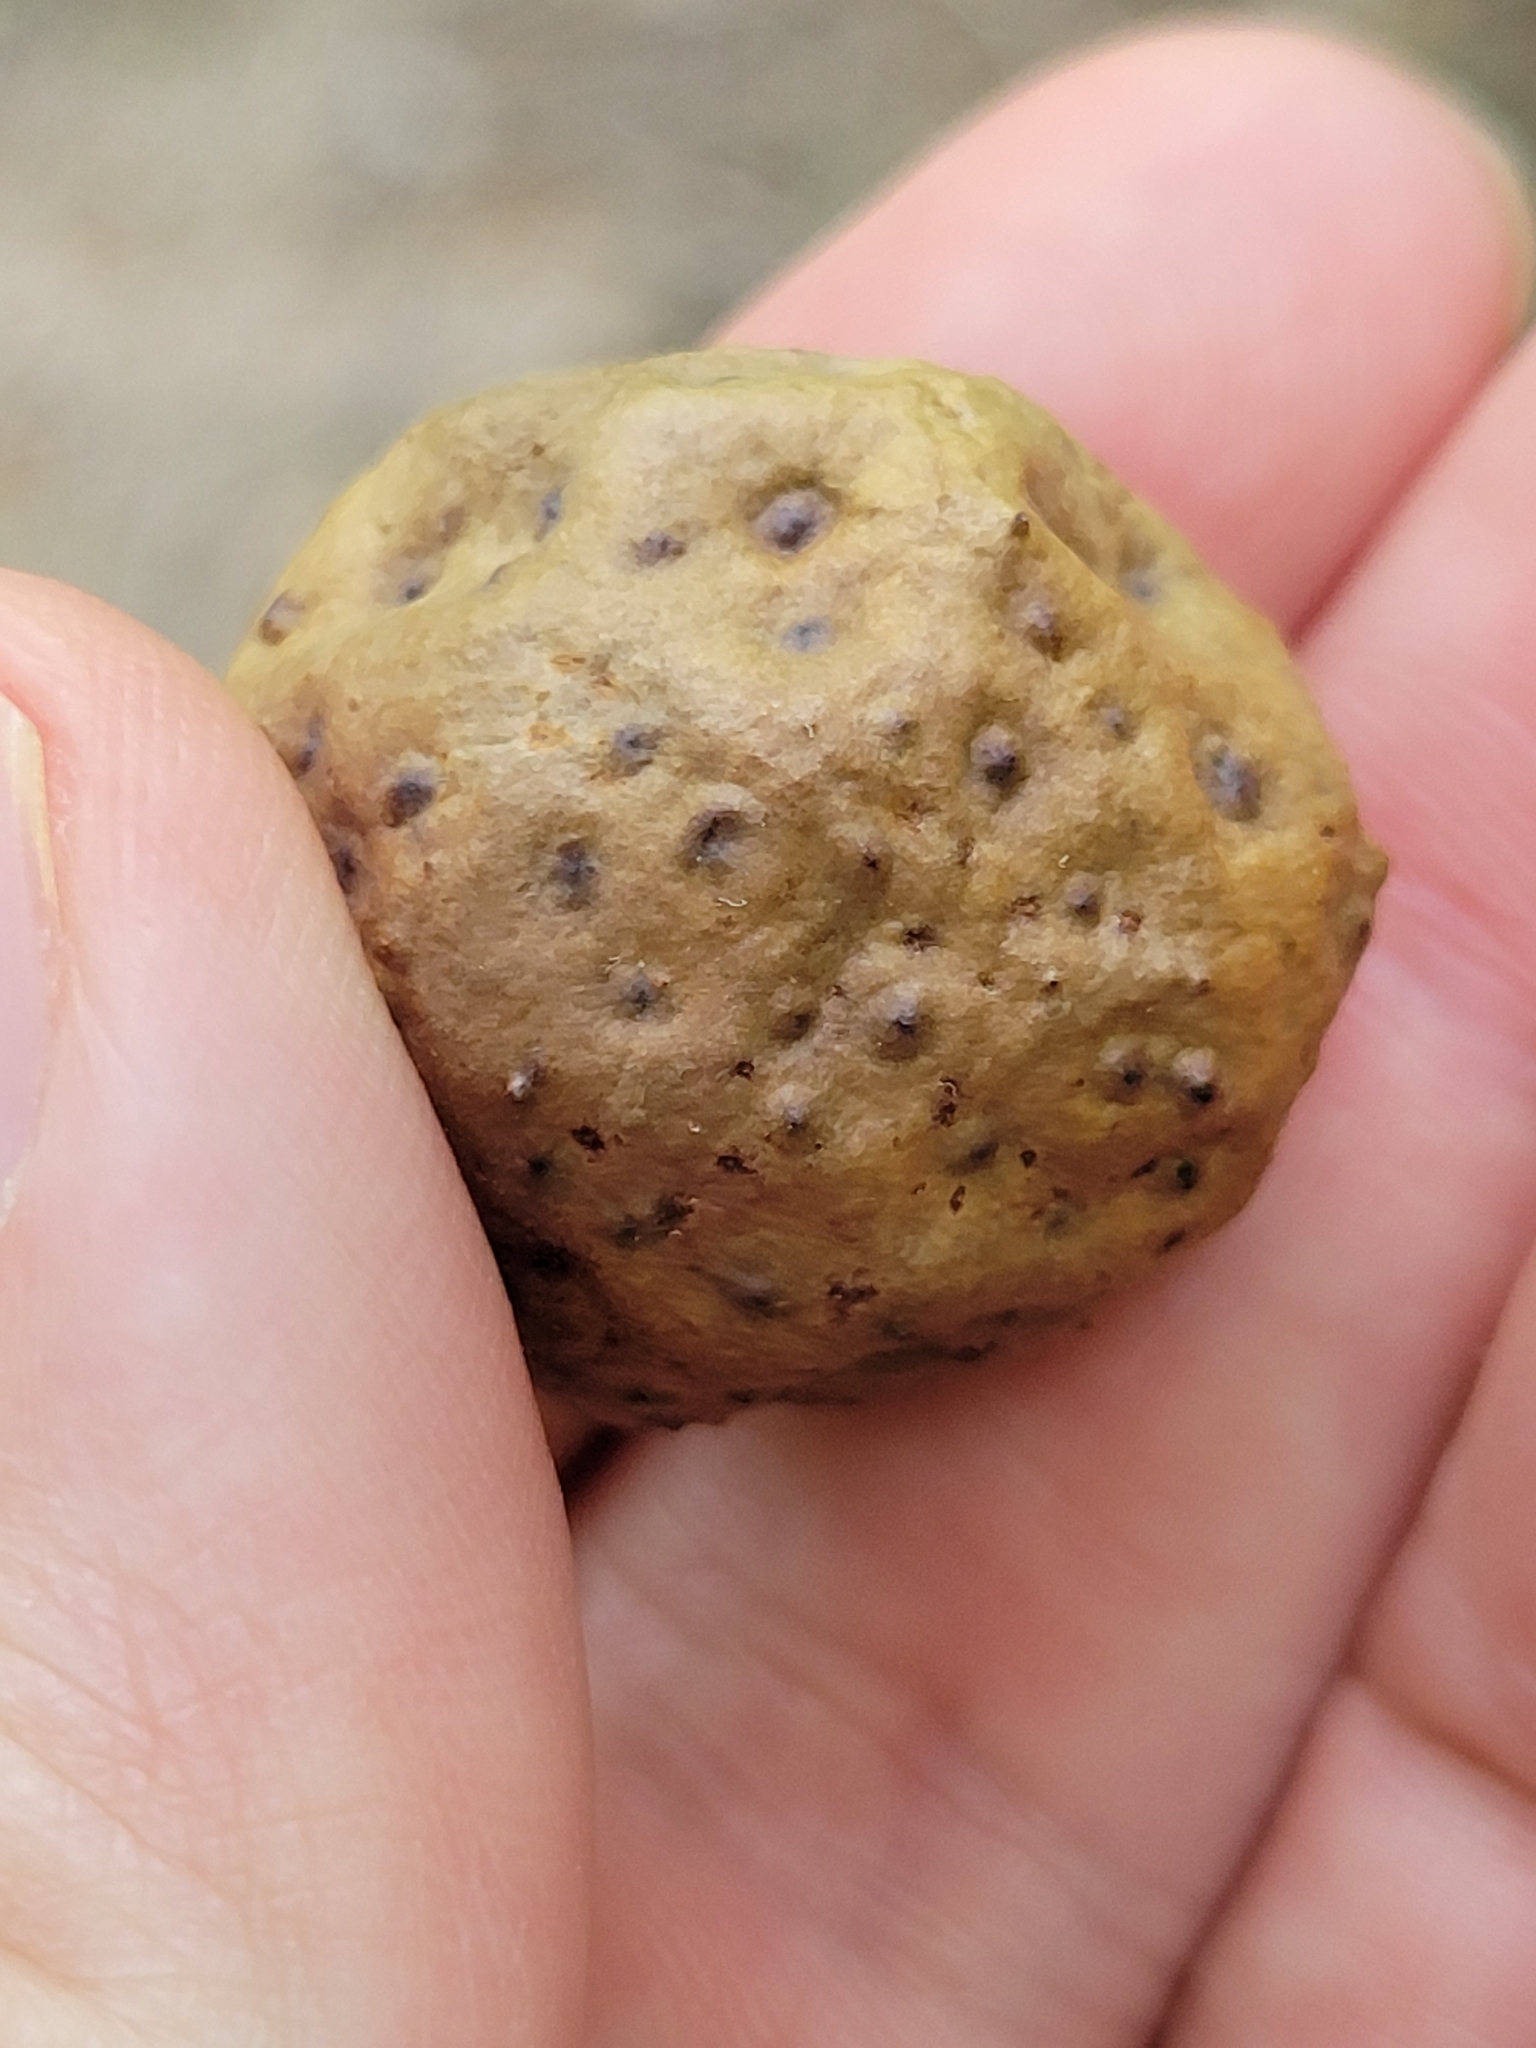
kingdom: Animalia
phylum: Arthropoda
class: Insecta
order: Hymenoptera
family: Cynipidae
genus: Amphibolips
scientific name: Amphibolips
